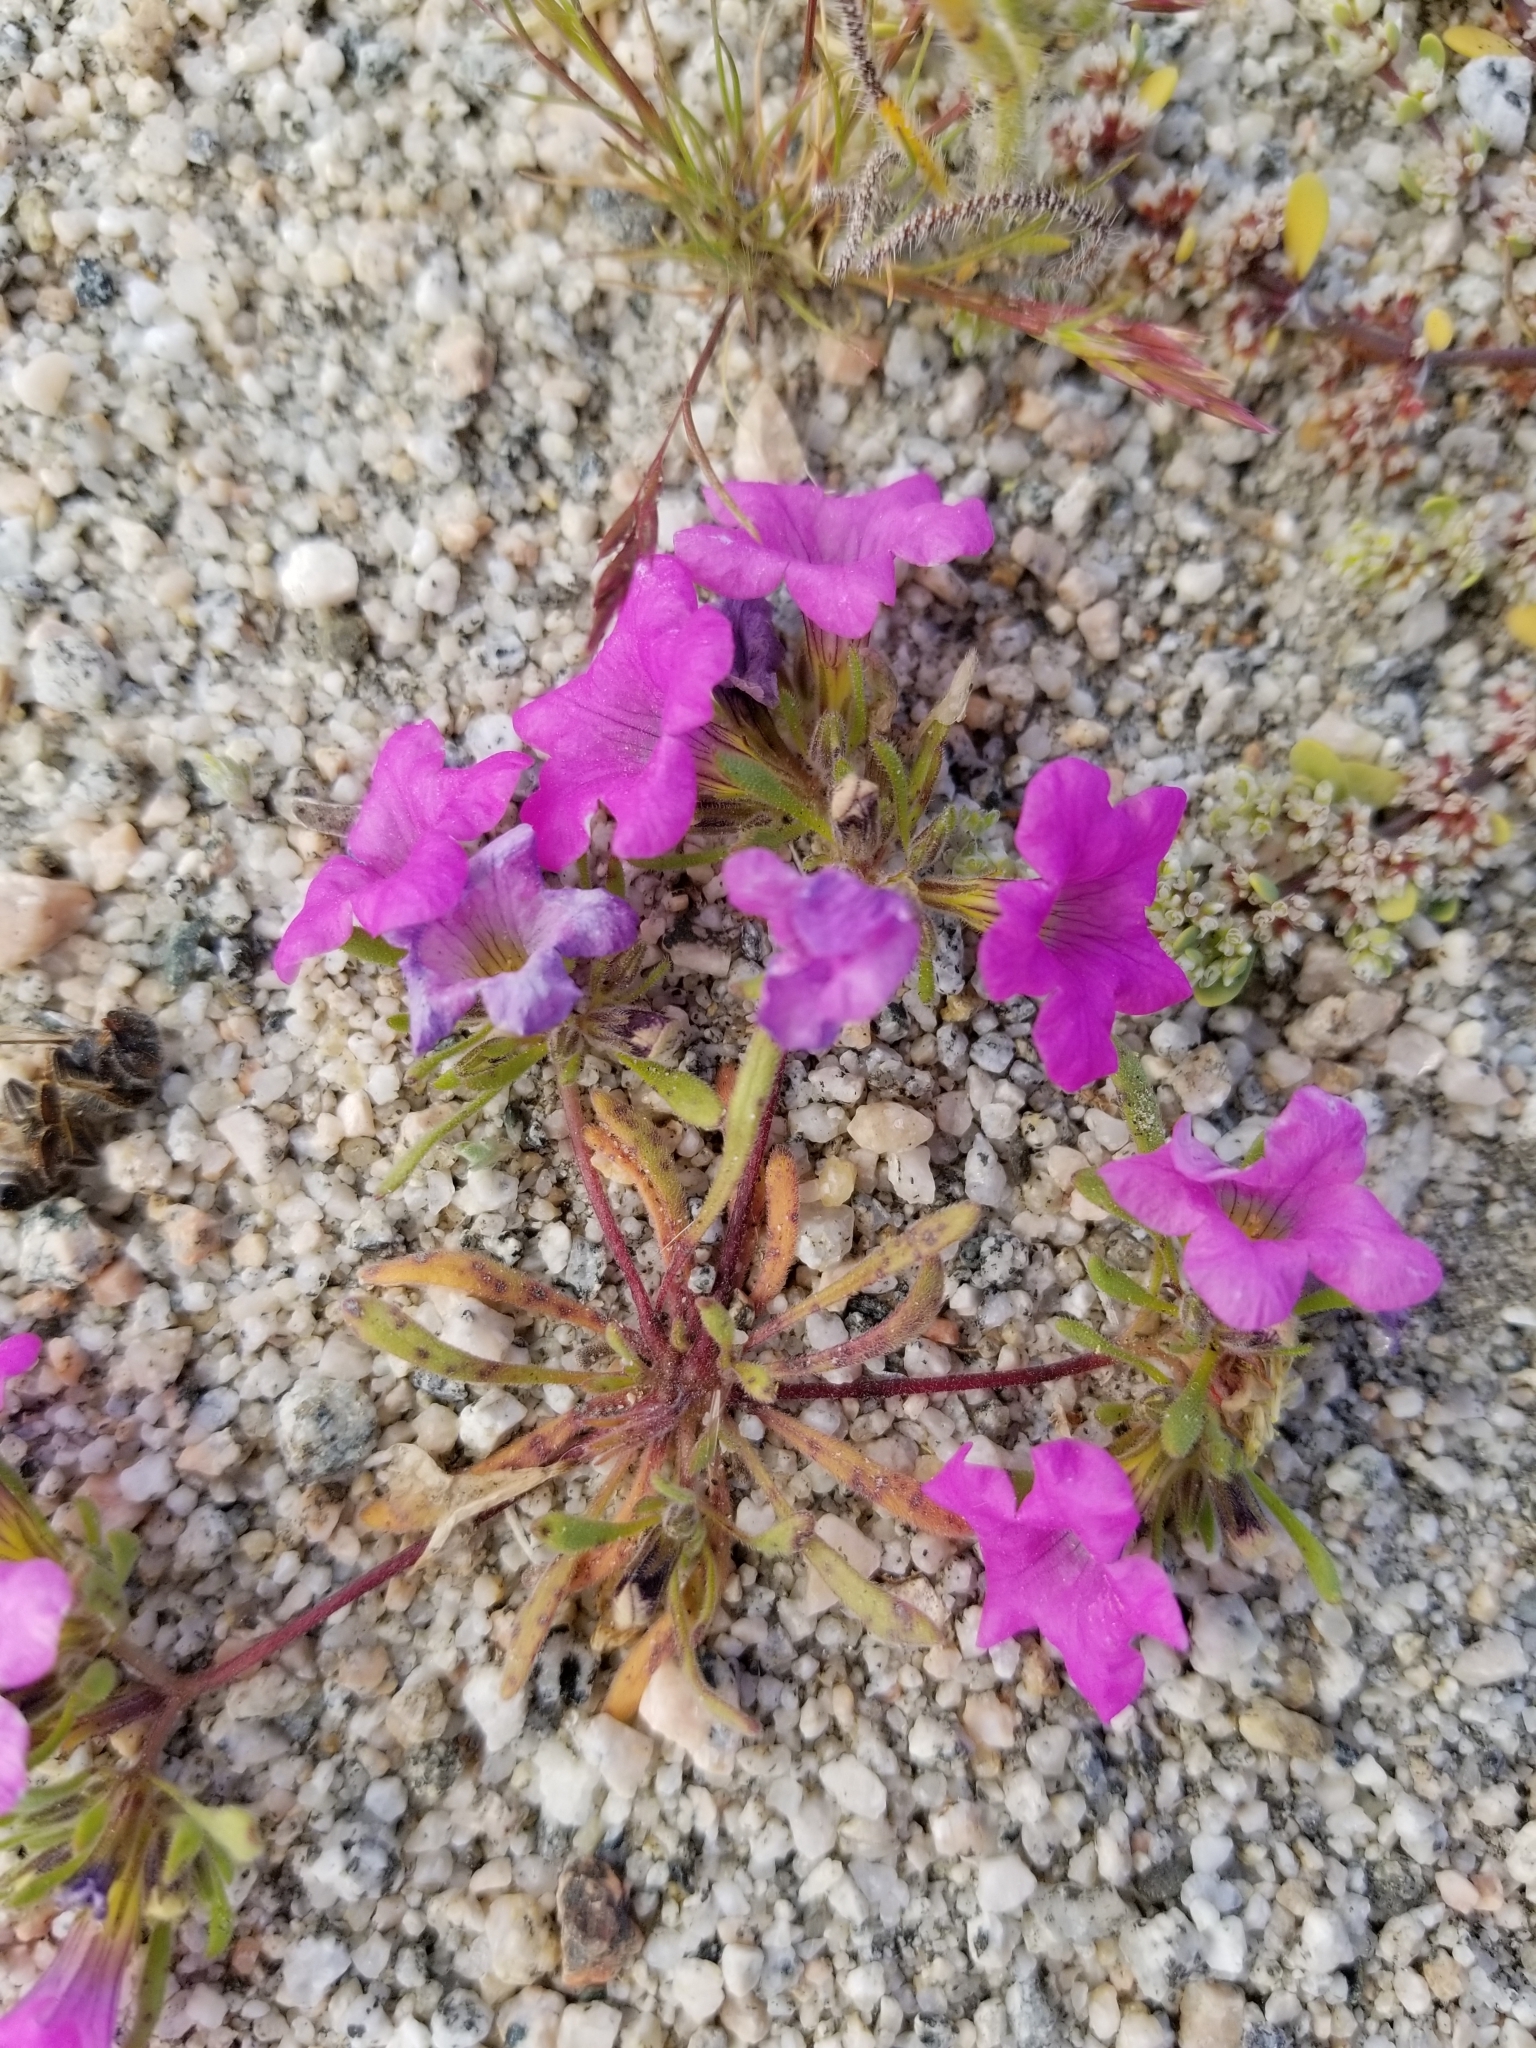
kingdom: Plantae
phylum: Tracheophyta
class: Magnoliopsida
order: Boraginales
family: Namaceae
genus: Nama
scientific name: Nama demissa
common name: Leafy nama
